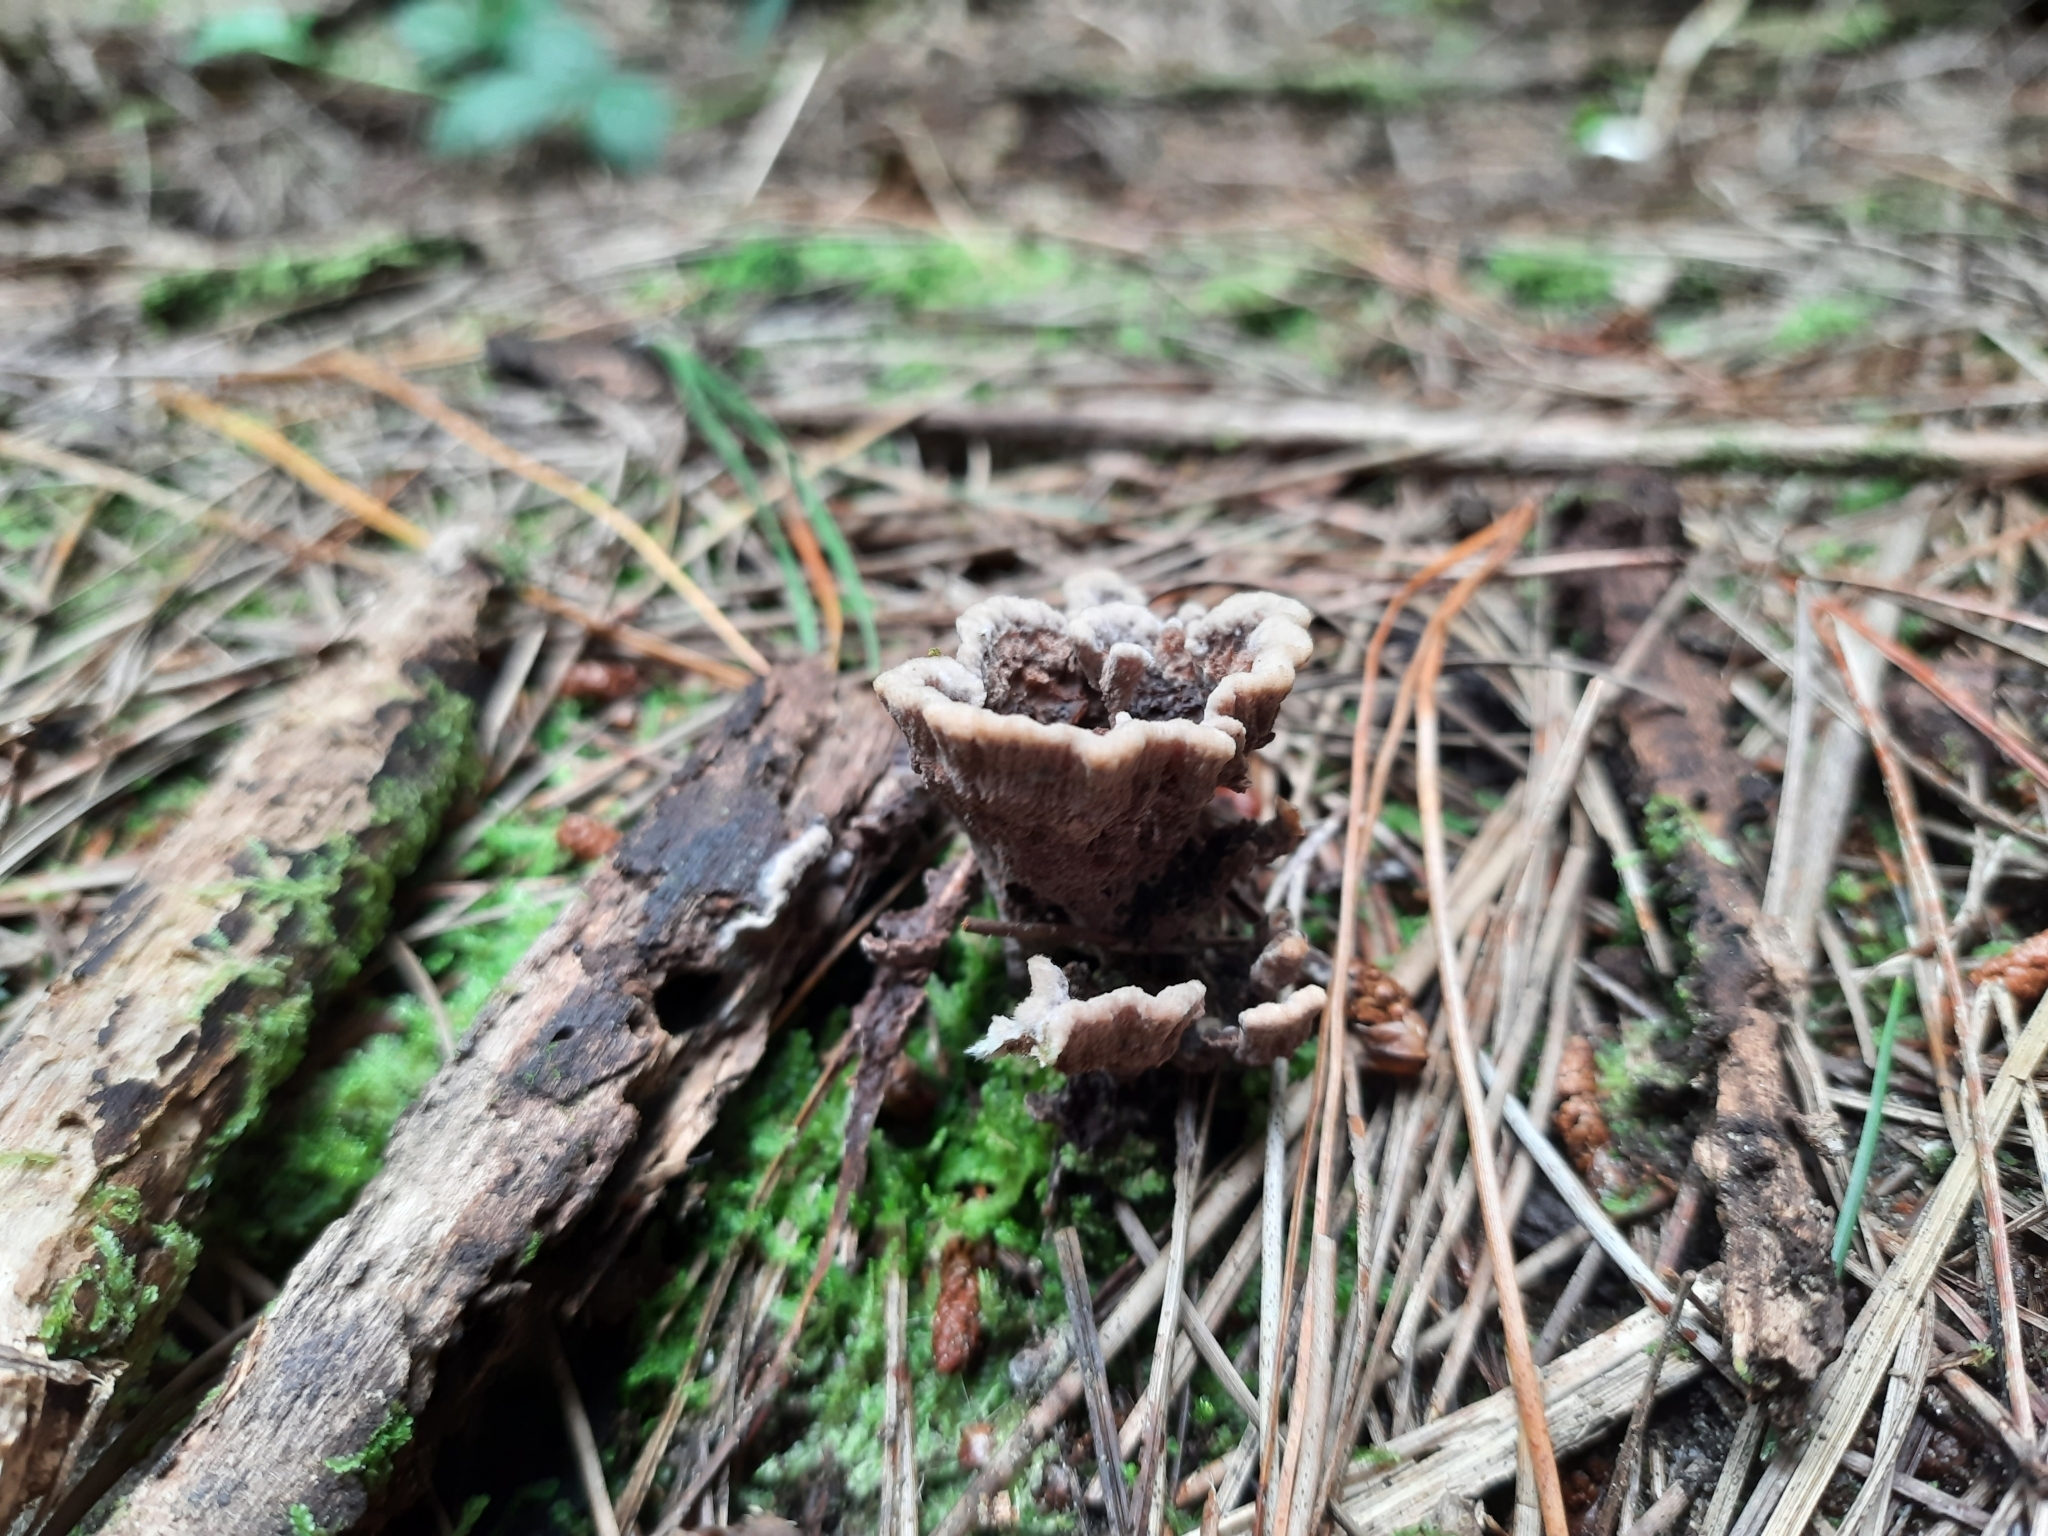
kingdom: Fungi
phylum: Basidiomycota
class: Agaricomycetes
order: Thelephorales
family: Thelephoraceae
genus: Thelephora
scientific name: Thelephora terrestris
